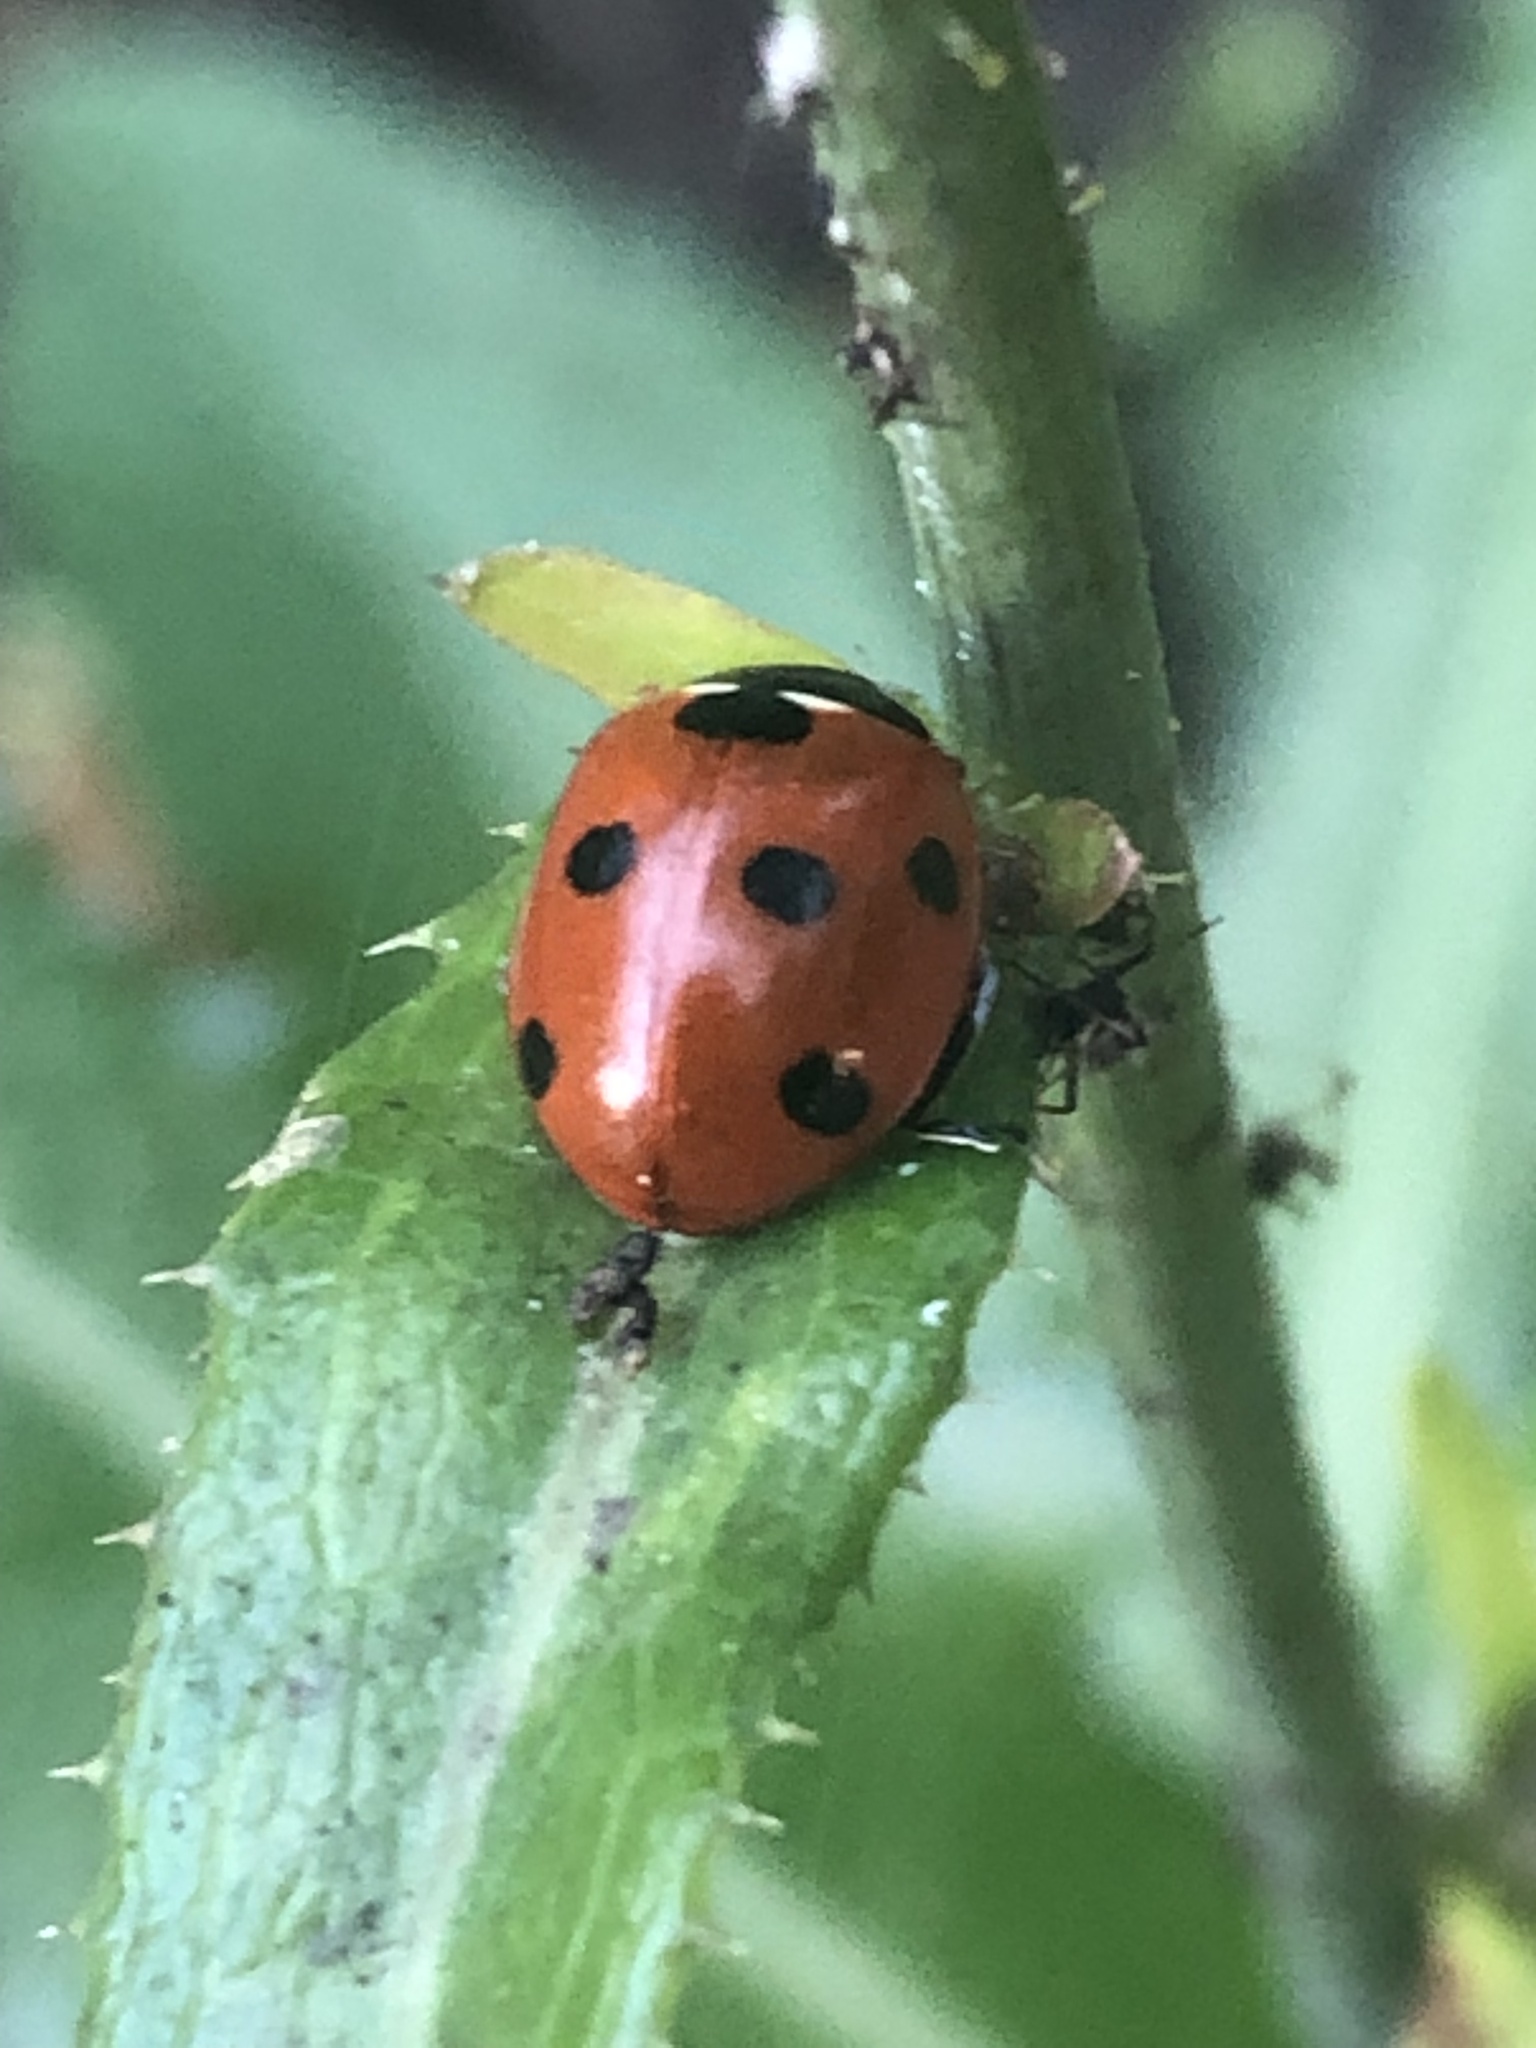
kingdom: Animalia
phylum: Arthropoda
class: Insecta
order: Coleoptera
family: Coccinellidae
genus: Coccinella
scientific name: Coccinella septempunctata
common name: Sevenspotted lady beetle
